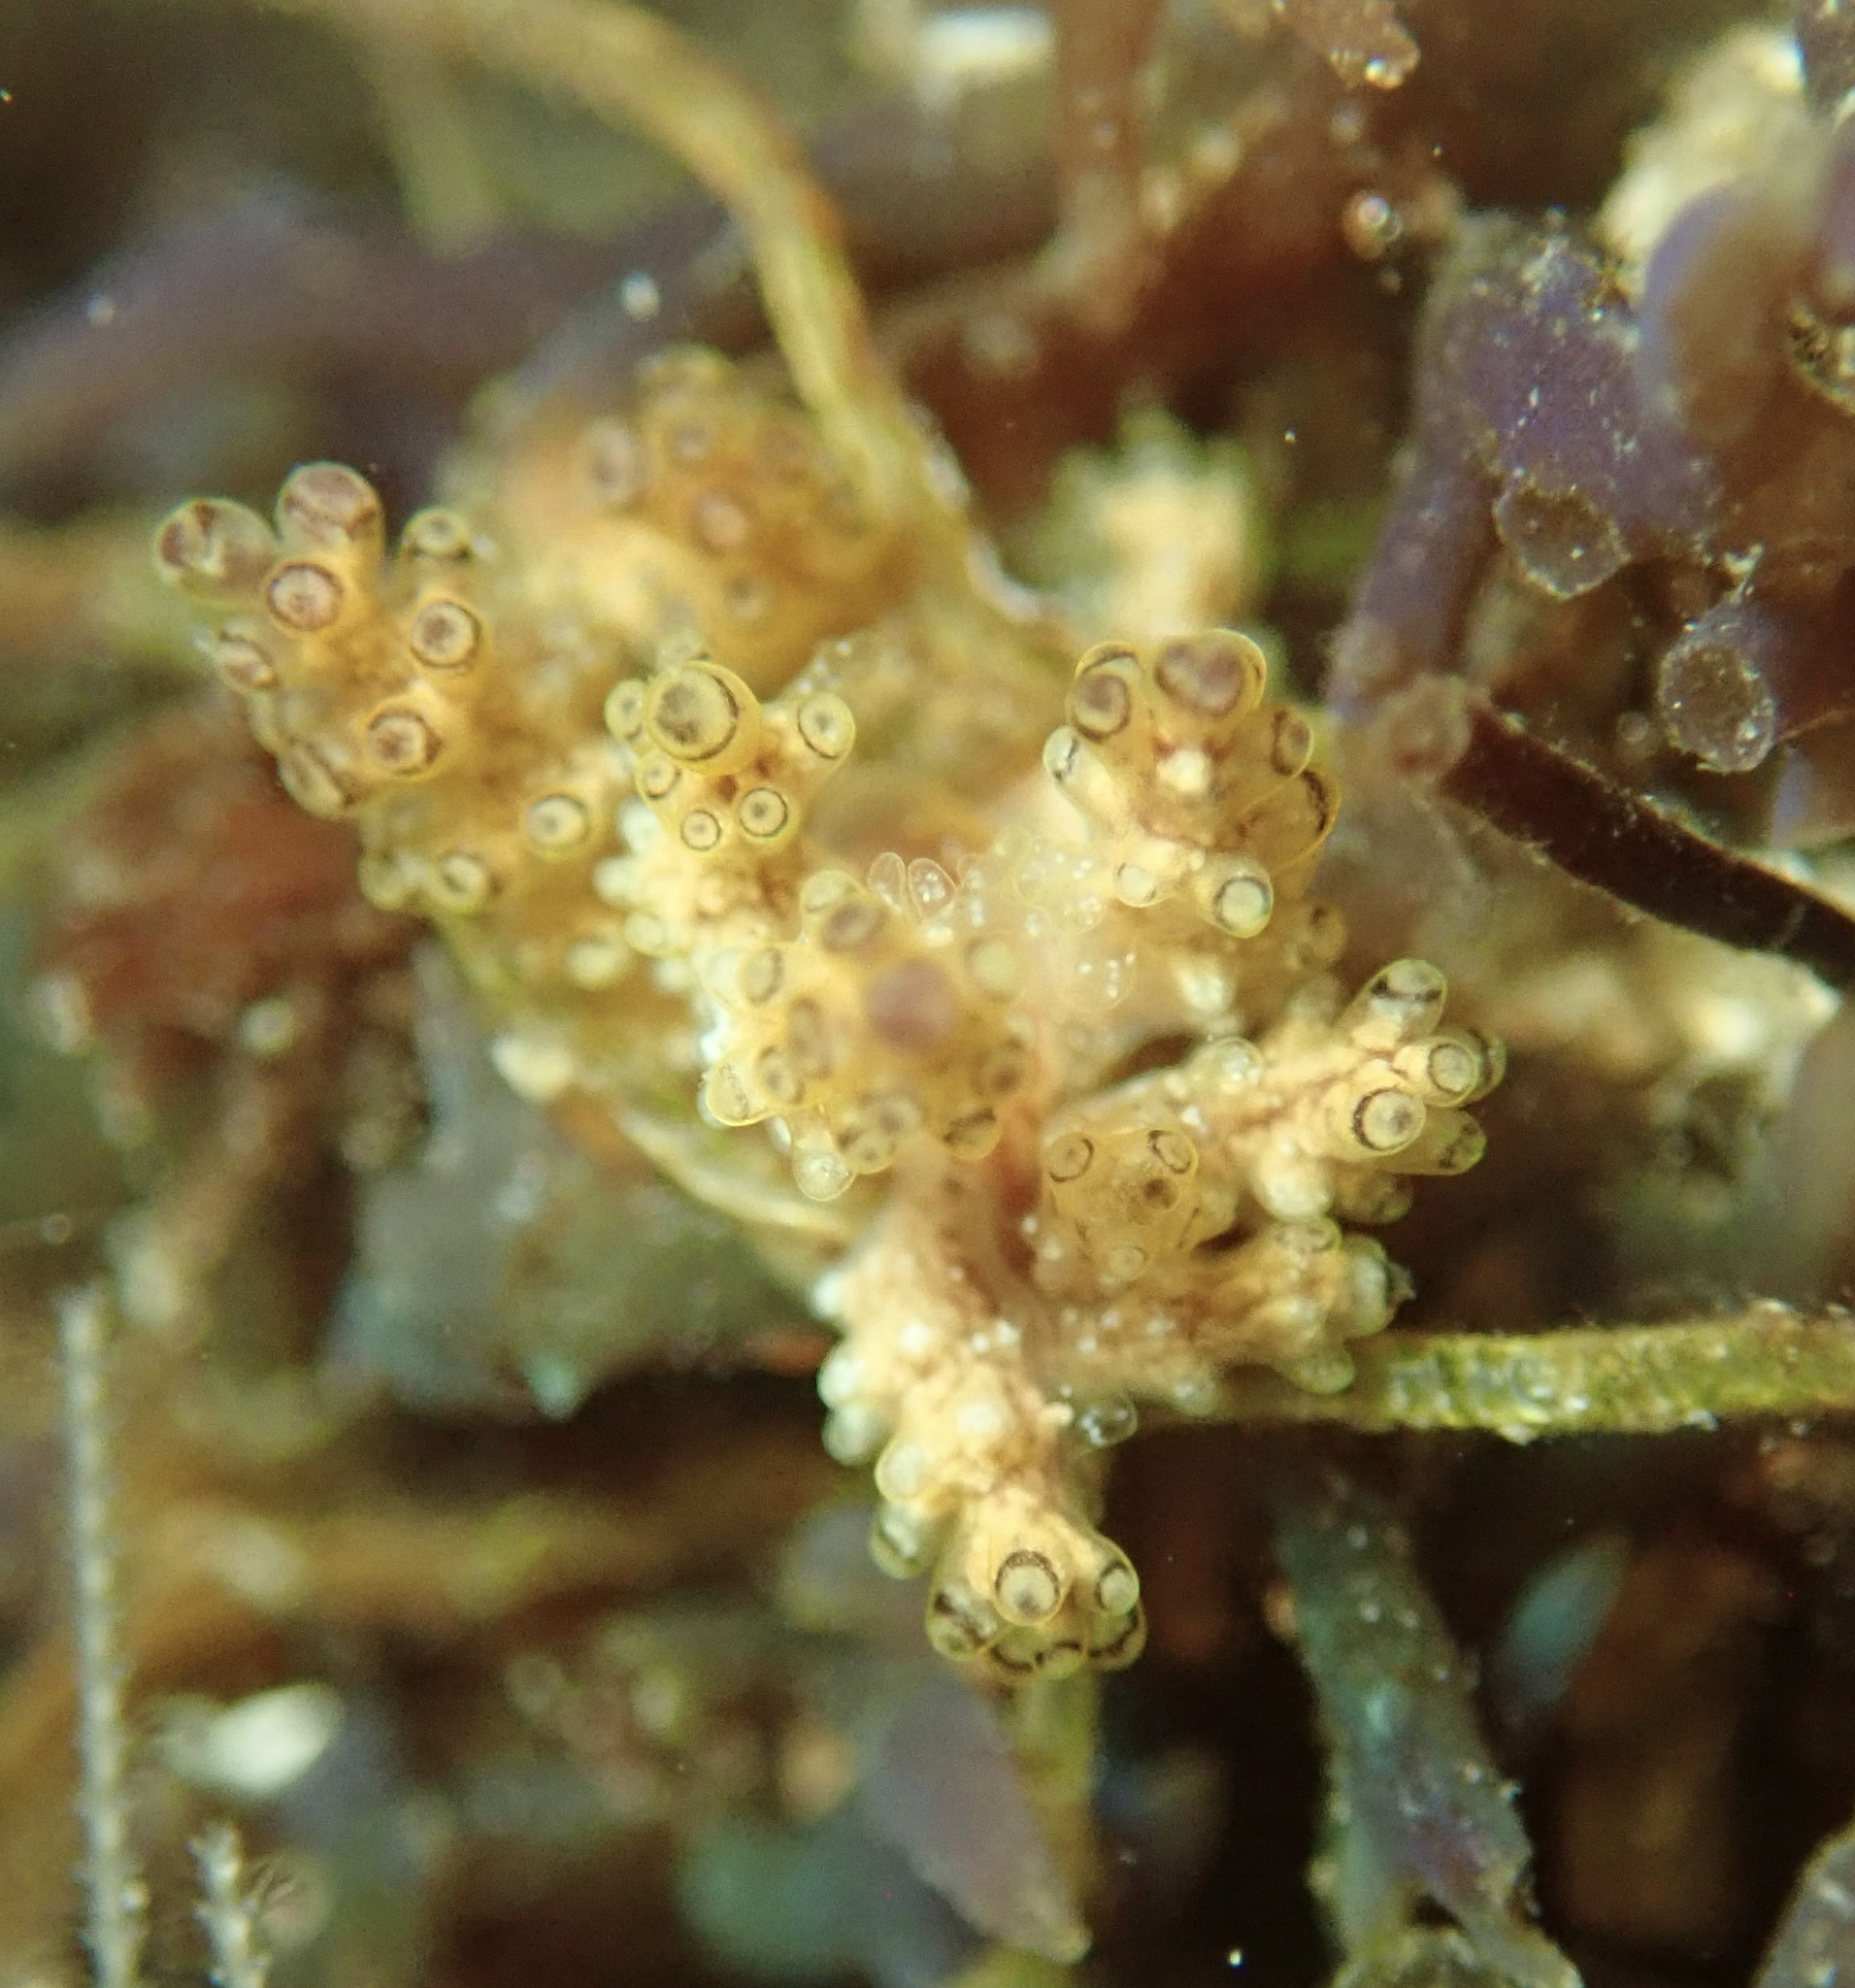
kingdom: Animalia
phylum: Mollusca
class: Gastropoda
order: Nudibranchia
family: Dotidae
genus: Doto
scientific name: Doto lancei
